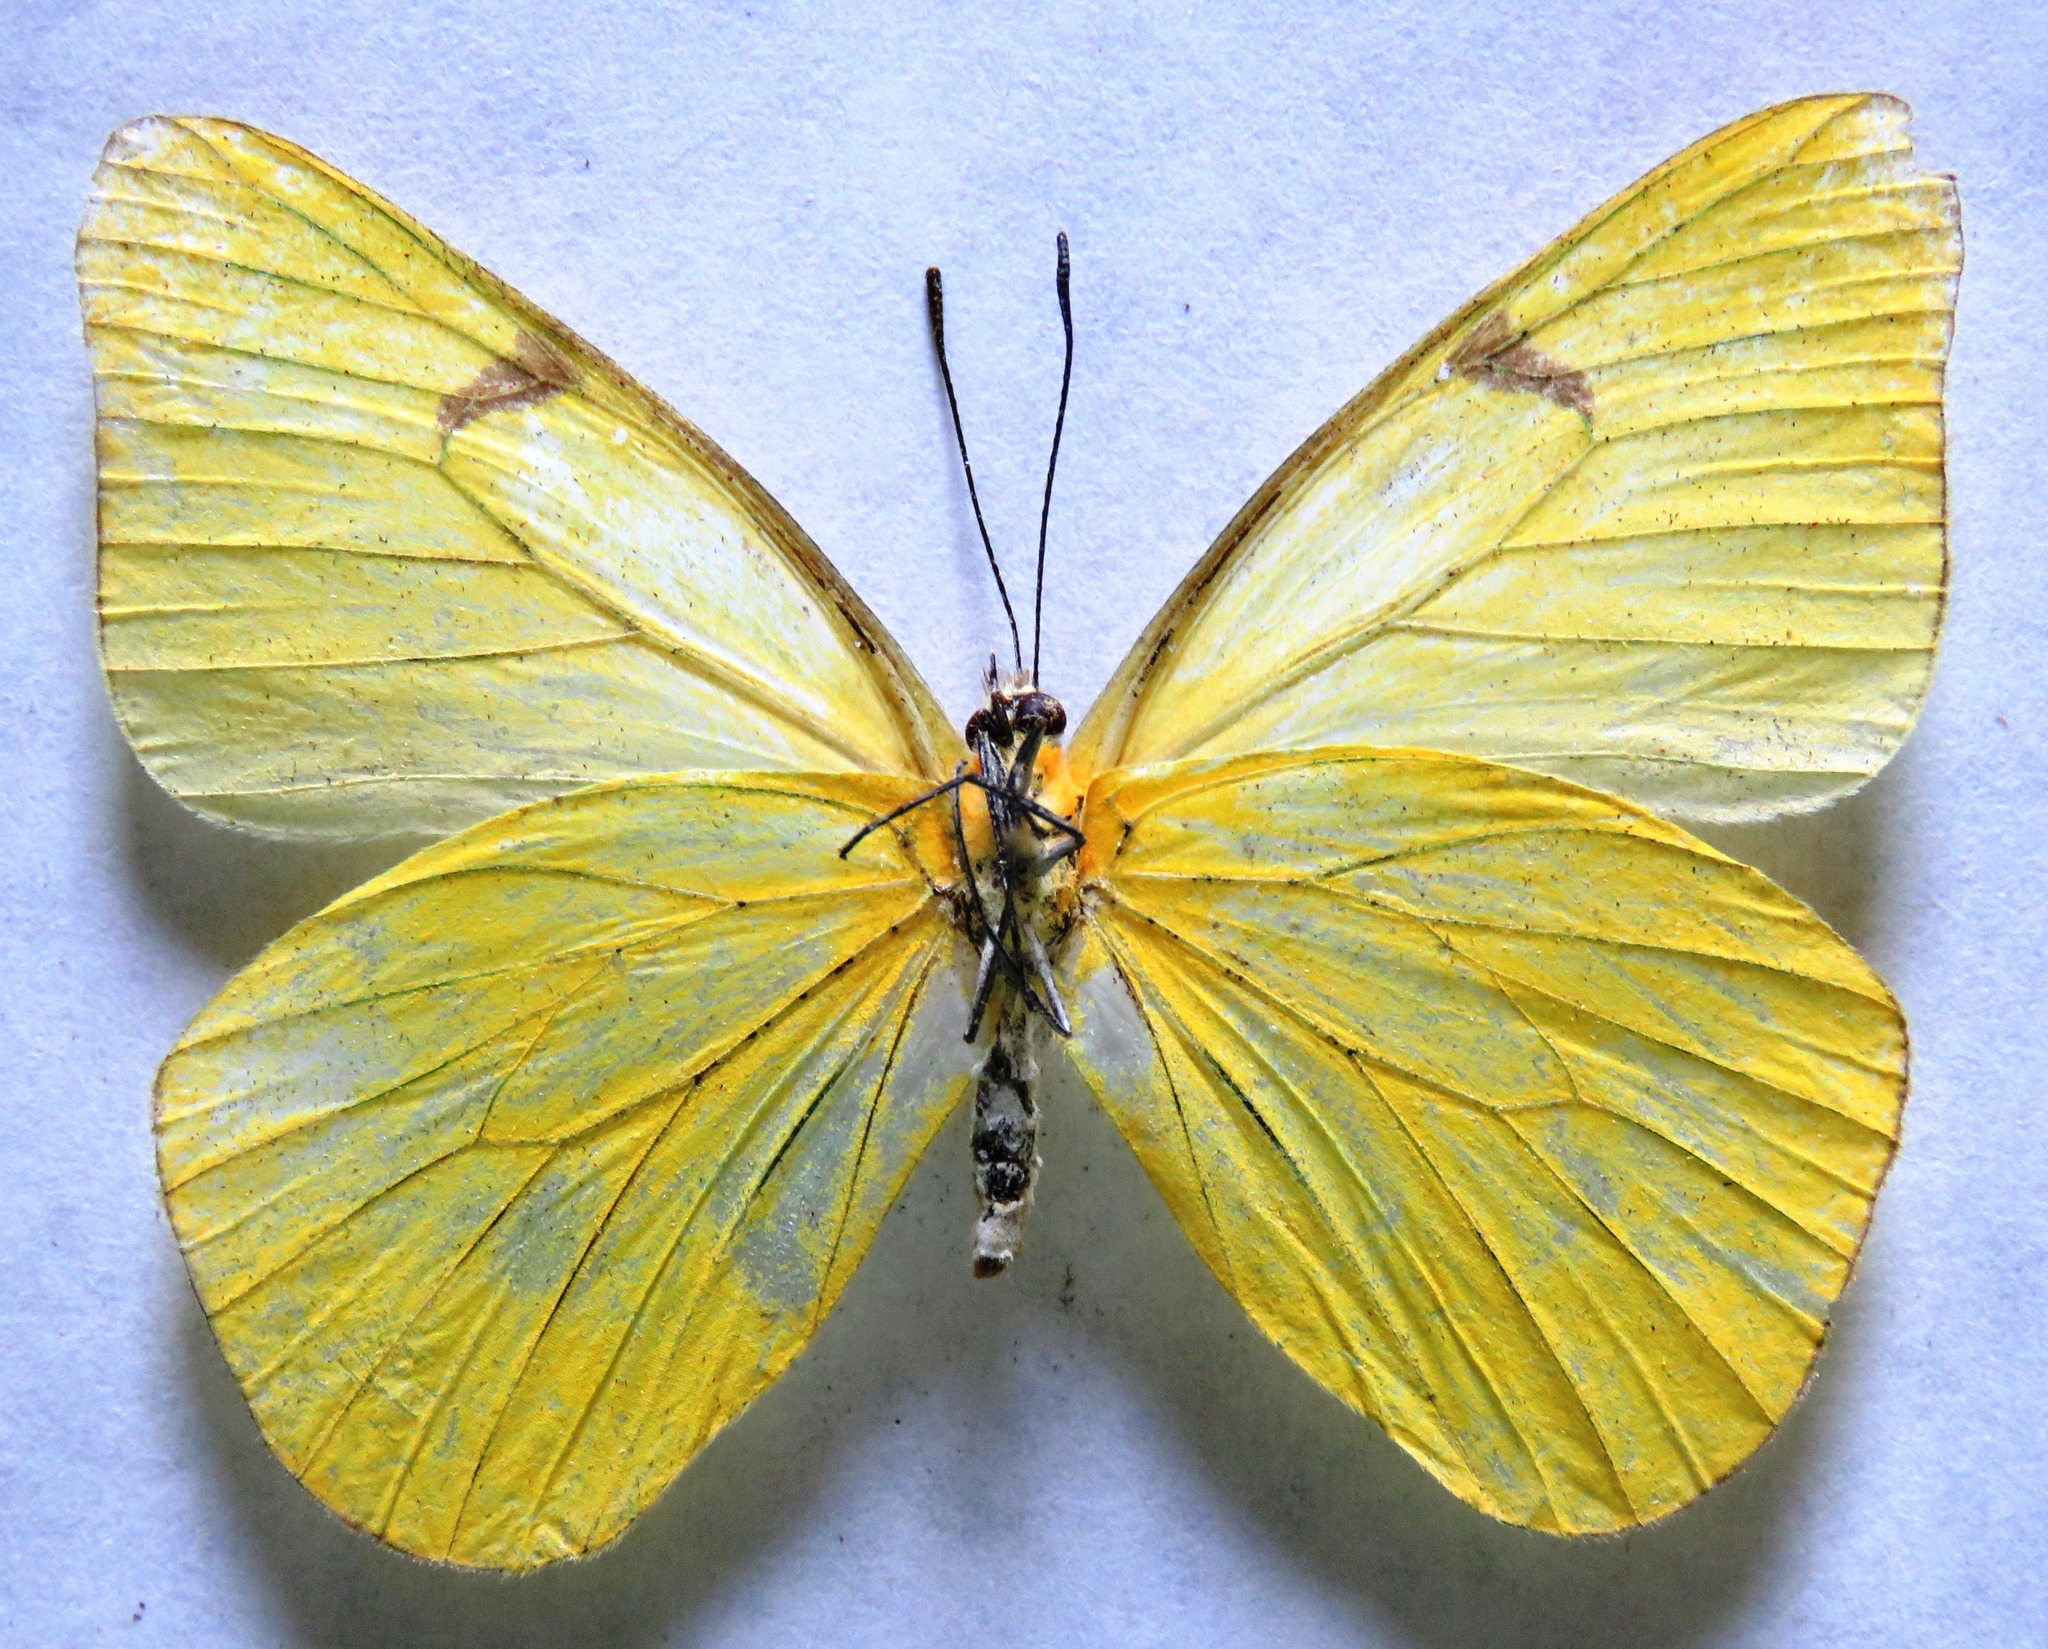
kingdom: Animalia
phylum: Arthropoda
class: Insecta
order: Lepidoptera
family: Pieridae
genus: Melete
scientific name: Melete lycimnia
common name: Common melwhite
